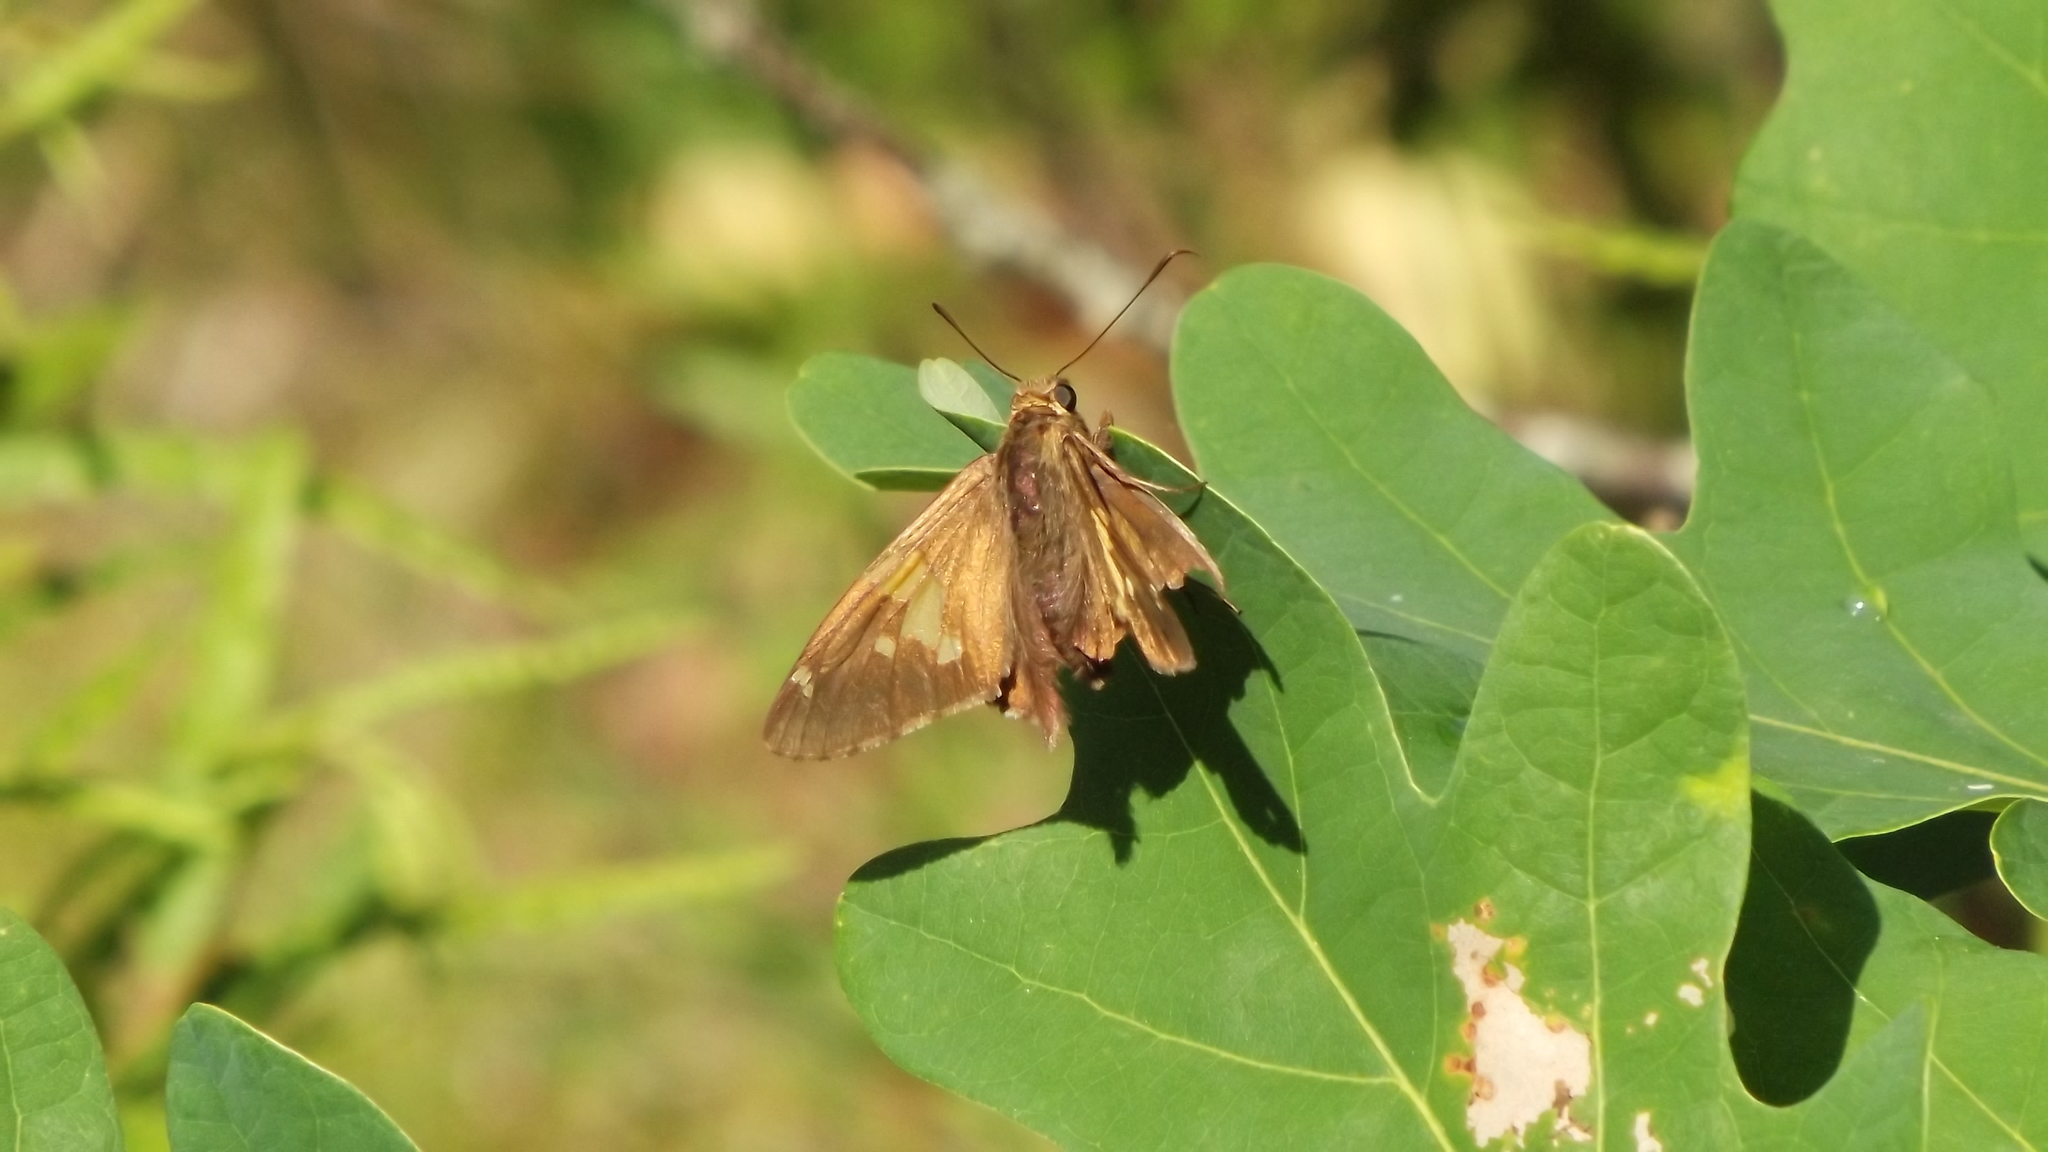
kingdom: Animalia
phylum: Arthropoda
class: Insecta
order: Lepidoptera
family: Hesperiidae
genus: Epargyreus
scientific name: Epargyreus clarus
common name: Silver-spotted skipper
